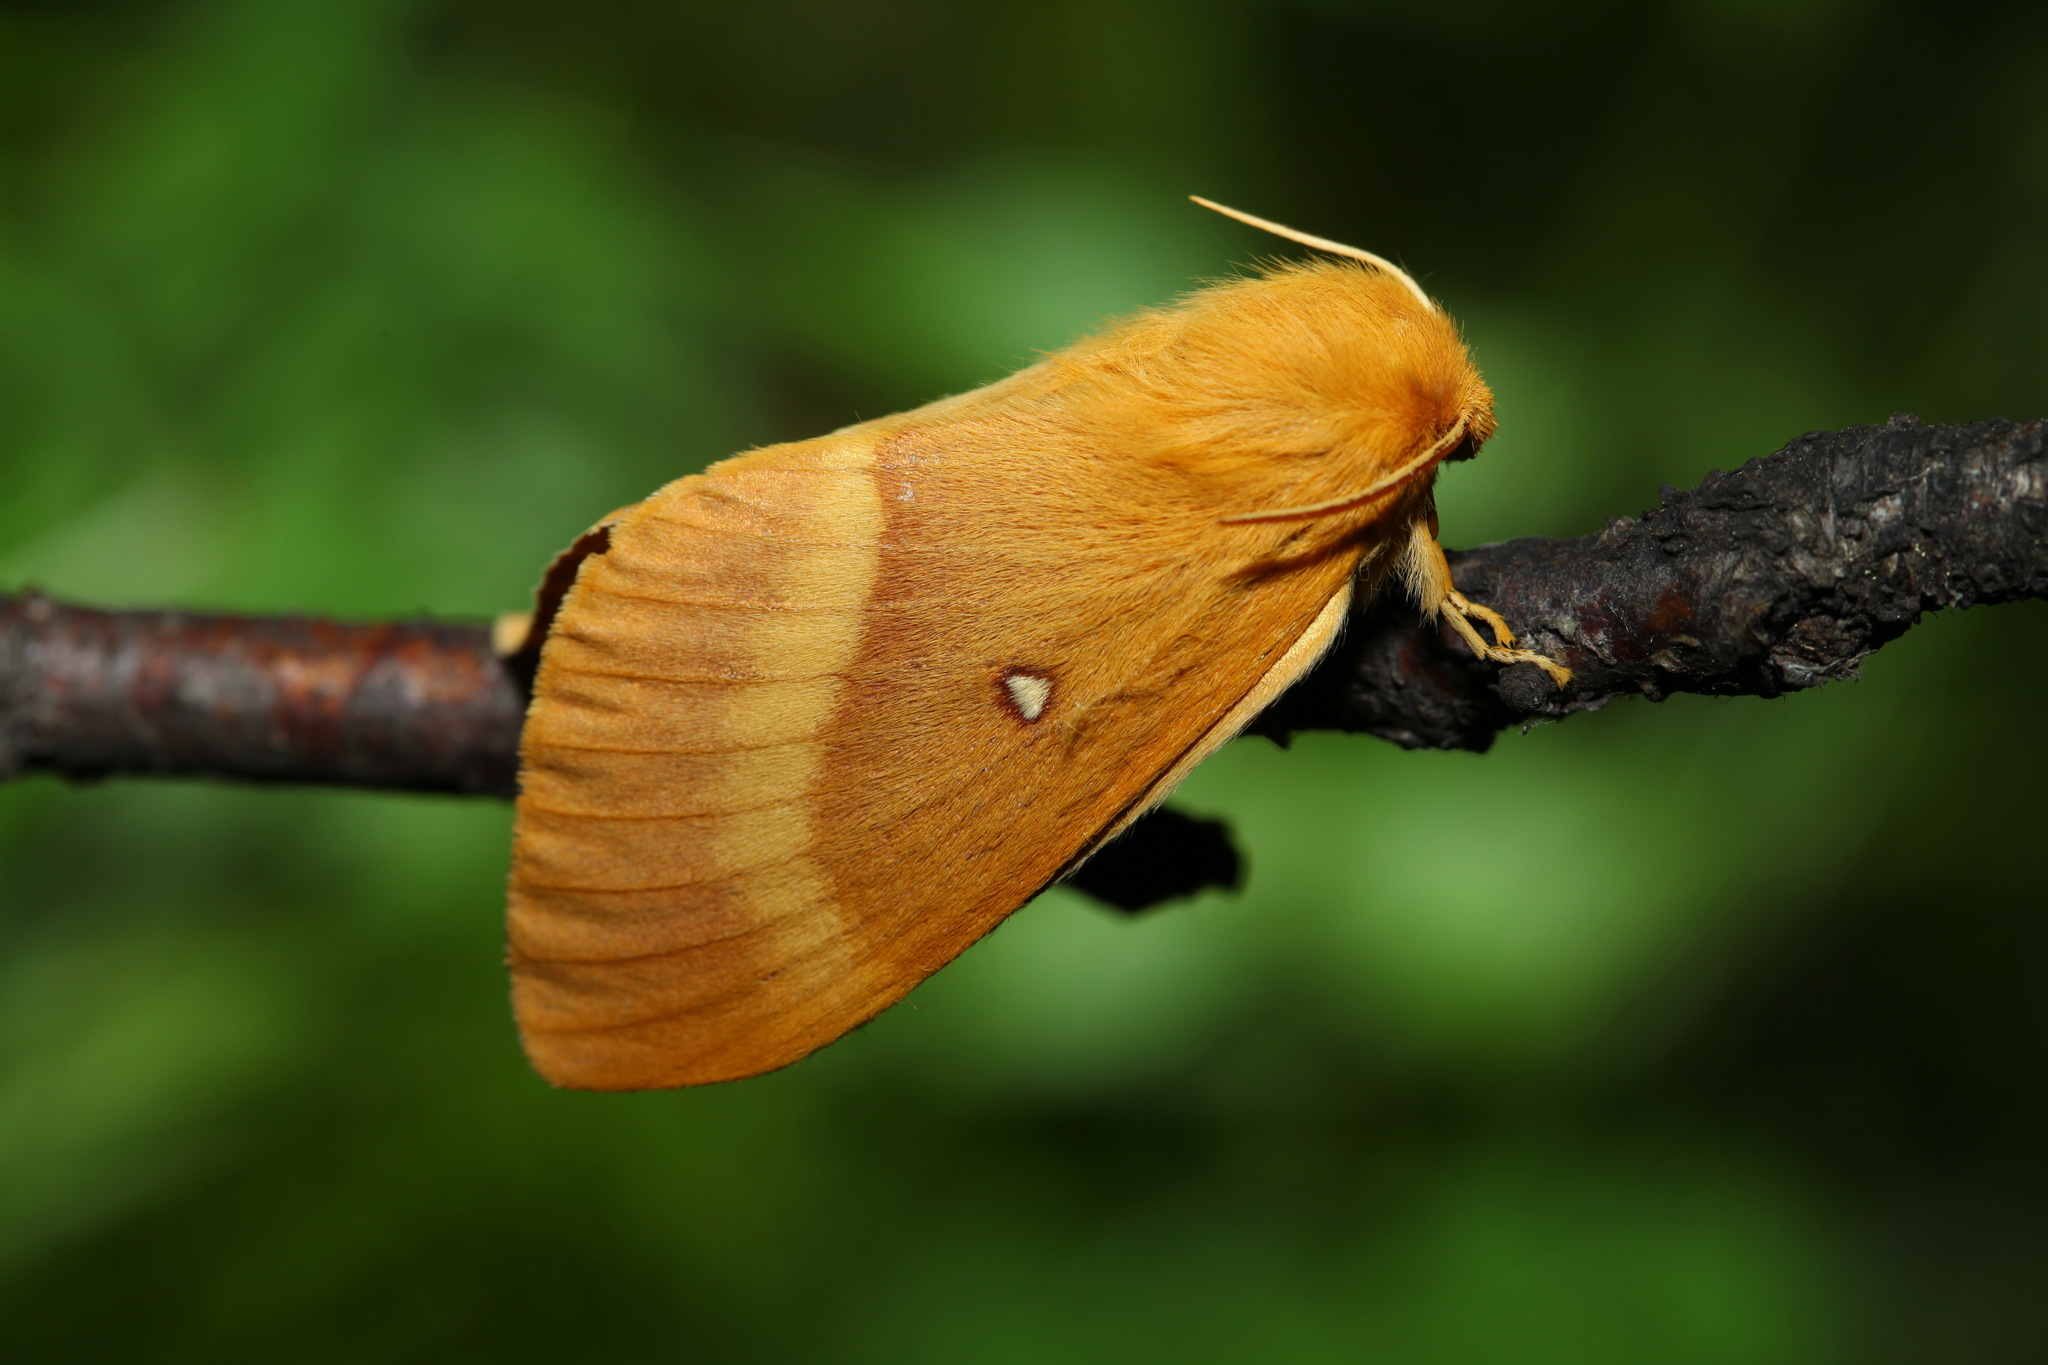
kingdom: Animalia
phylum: Arthropoda
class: Insecta
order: Lepidoptera
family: Lasiocampidae
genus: Lasiocampa
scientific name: Lasiocampa quercus
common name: Oak eggar
